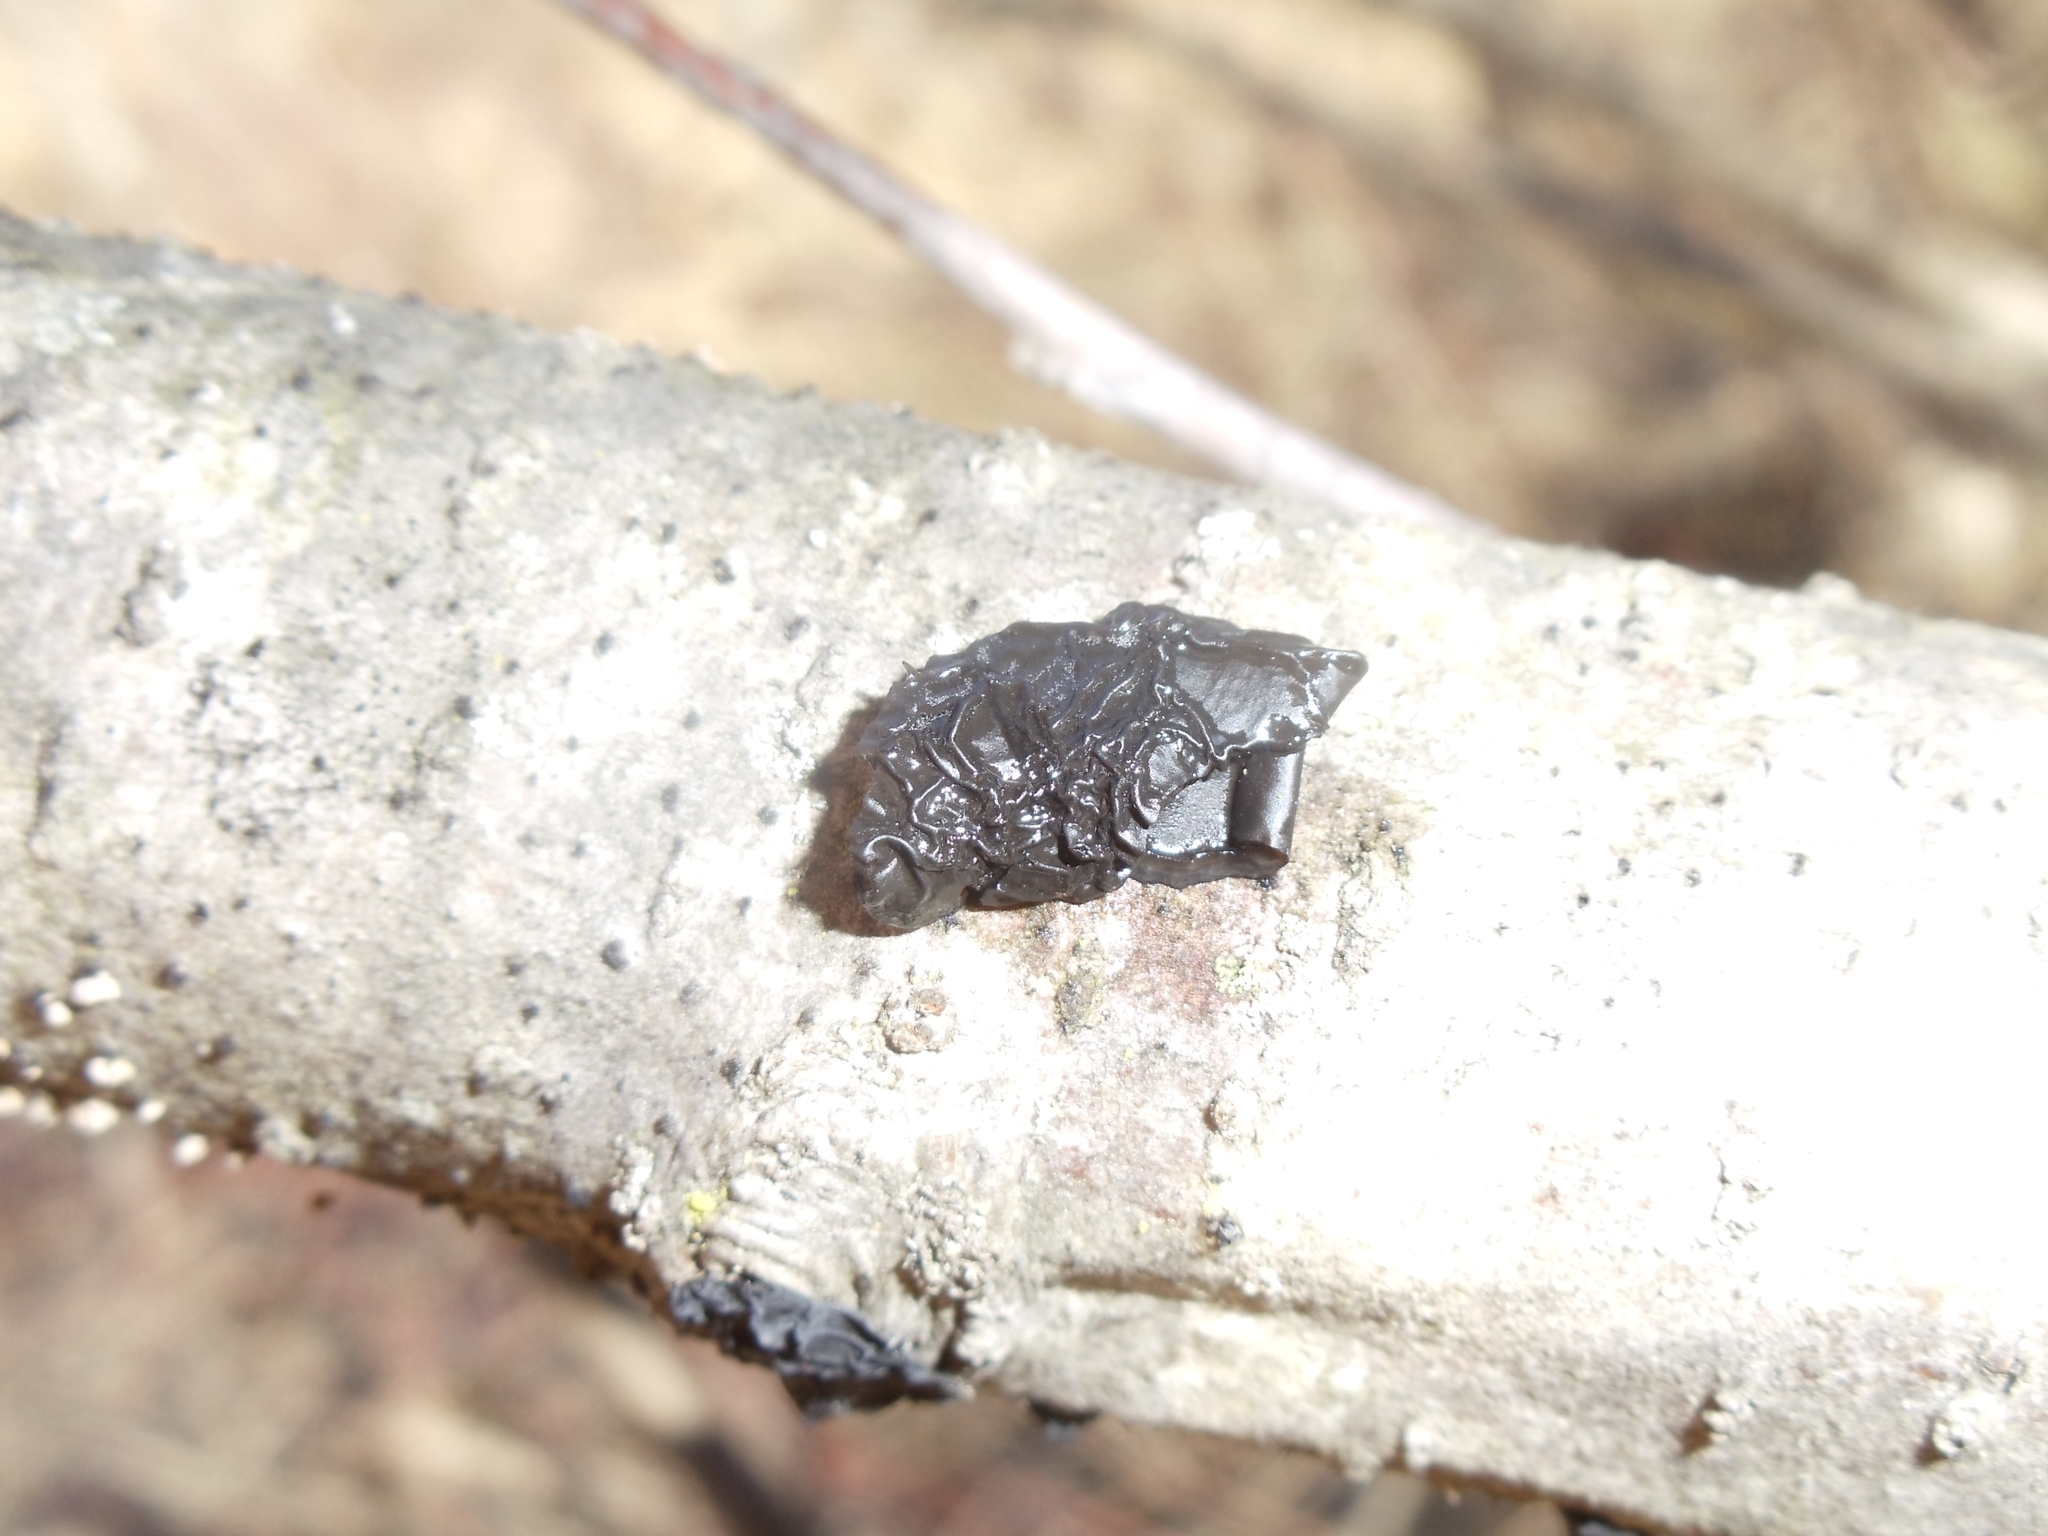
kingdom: Fungi
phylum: Basidiomycota
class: Agaricomycetes
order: Auriculariales
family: Auriculariaceae
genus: Exidia
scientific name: Exidia glandulosa
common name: Witches' butter
